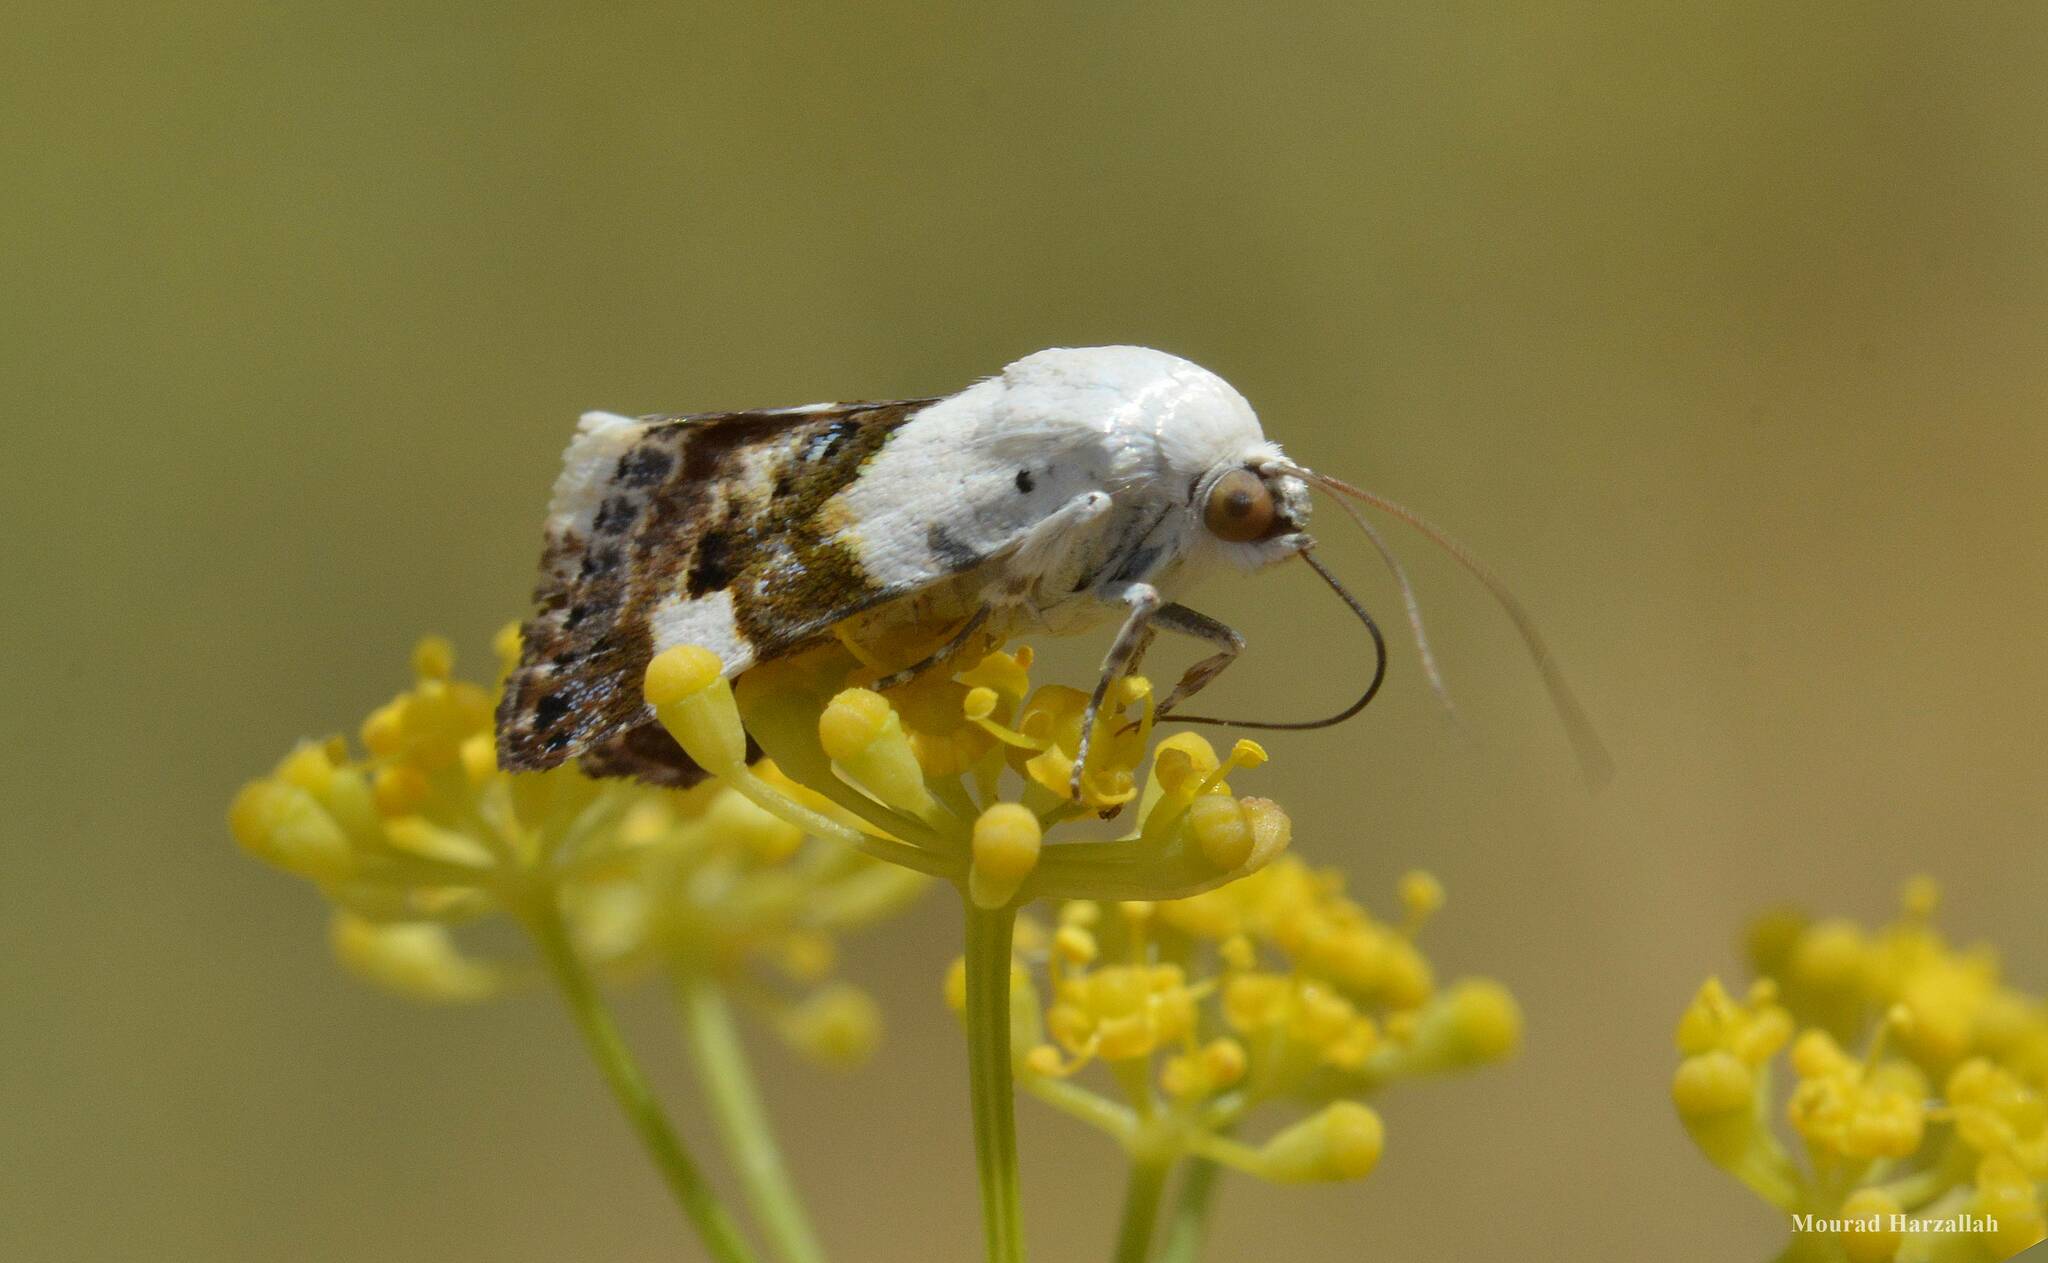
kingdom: Animalia
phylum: Arthropoda
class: Insecta
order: Lepidoptera
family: Noctuidae
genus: Acontia
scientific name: Acontia lucida
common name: Pale shoulder
